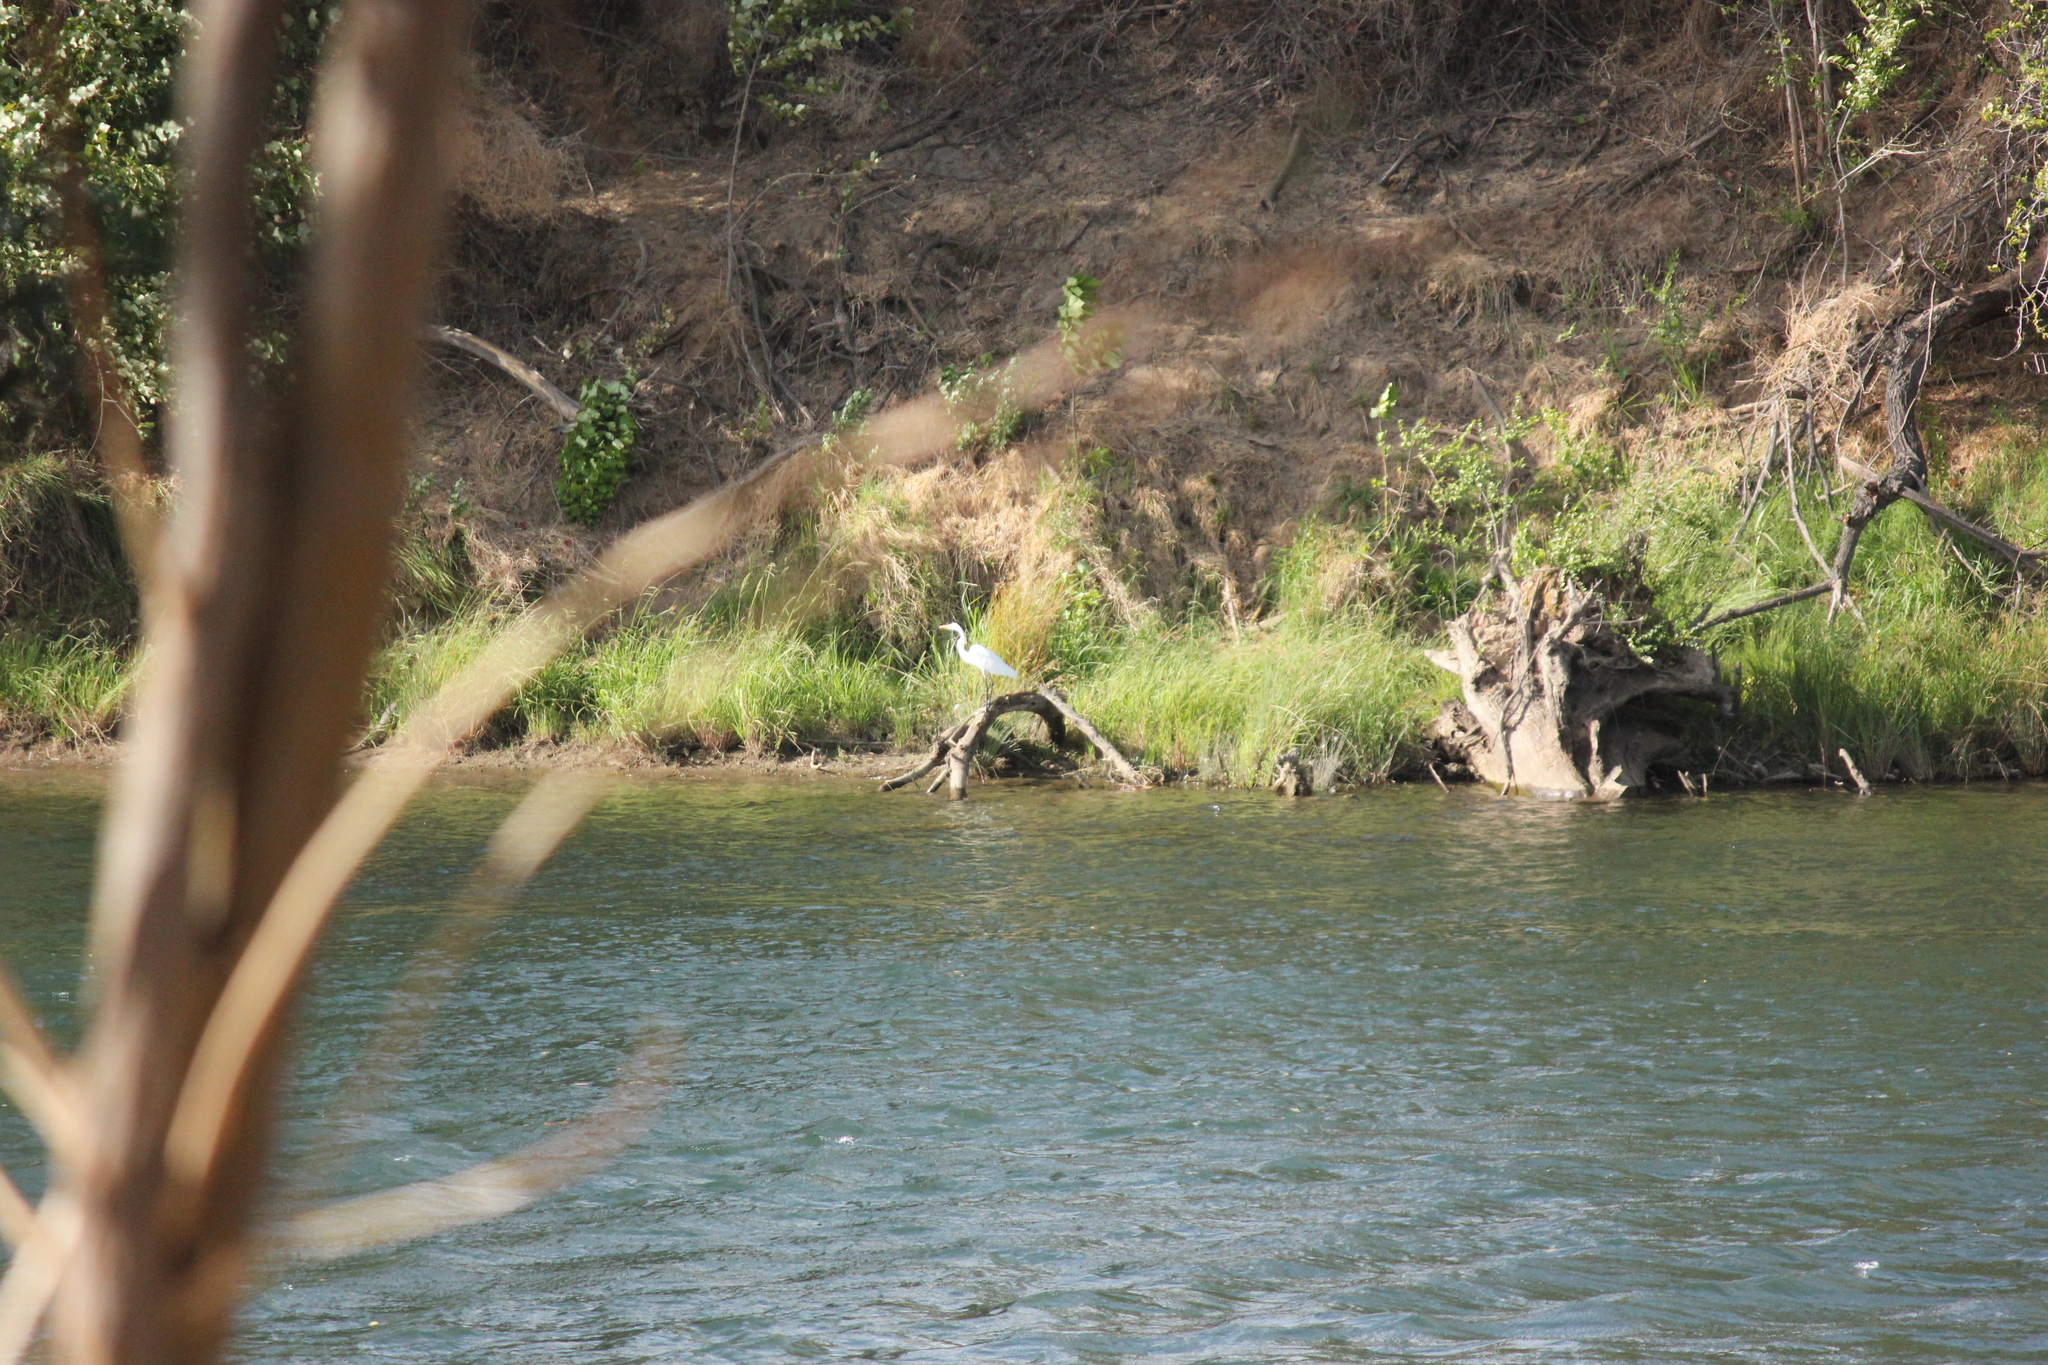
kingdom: Animalia
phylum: Chordata
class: Aves
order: Pelecaniformes
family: Ardeidae
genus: Ardea
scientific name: Ardea alba
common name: Great egret
